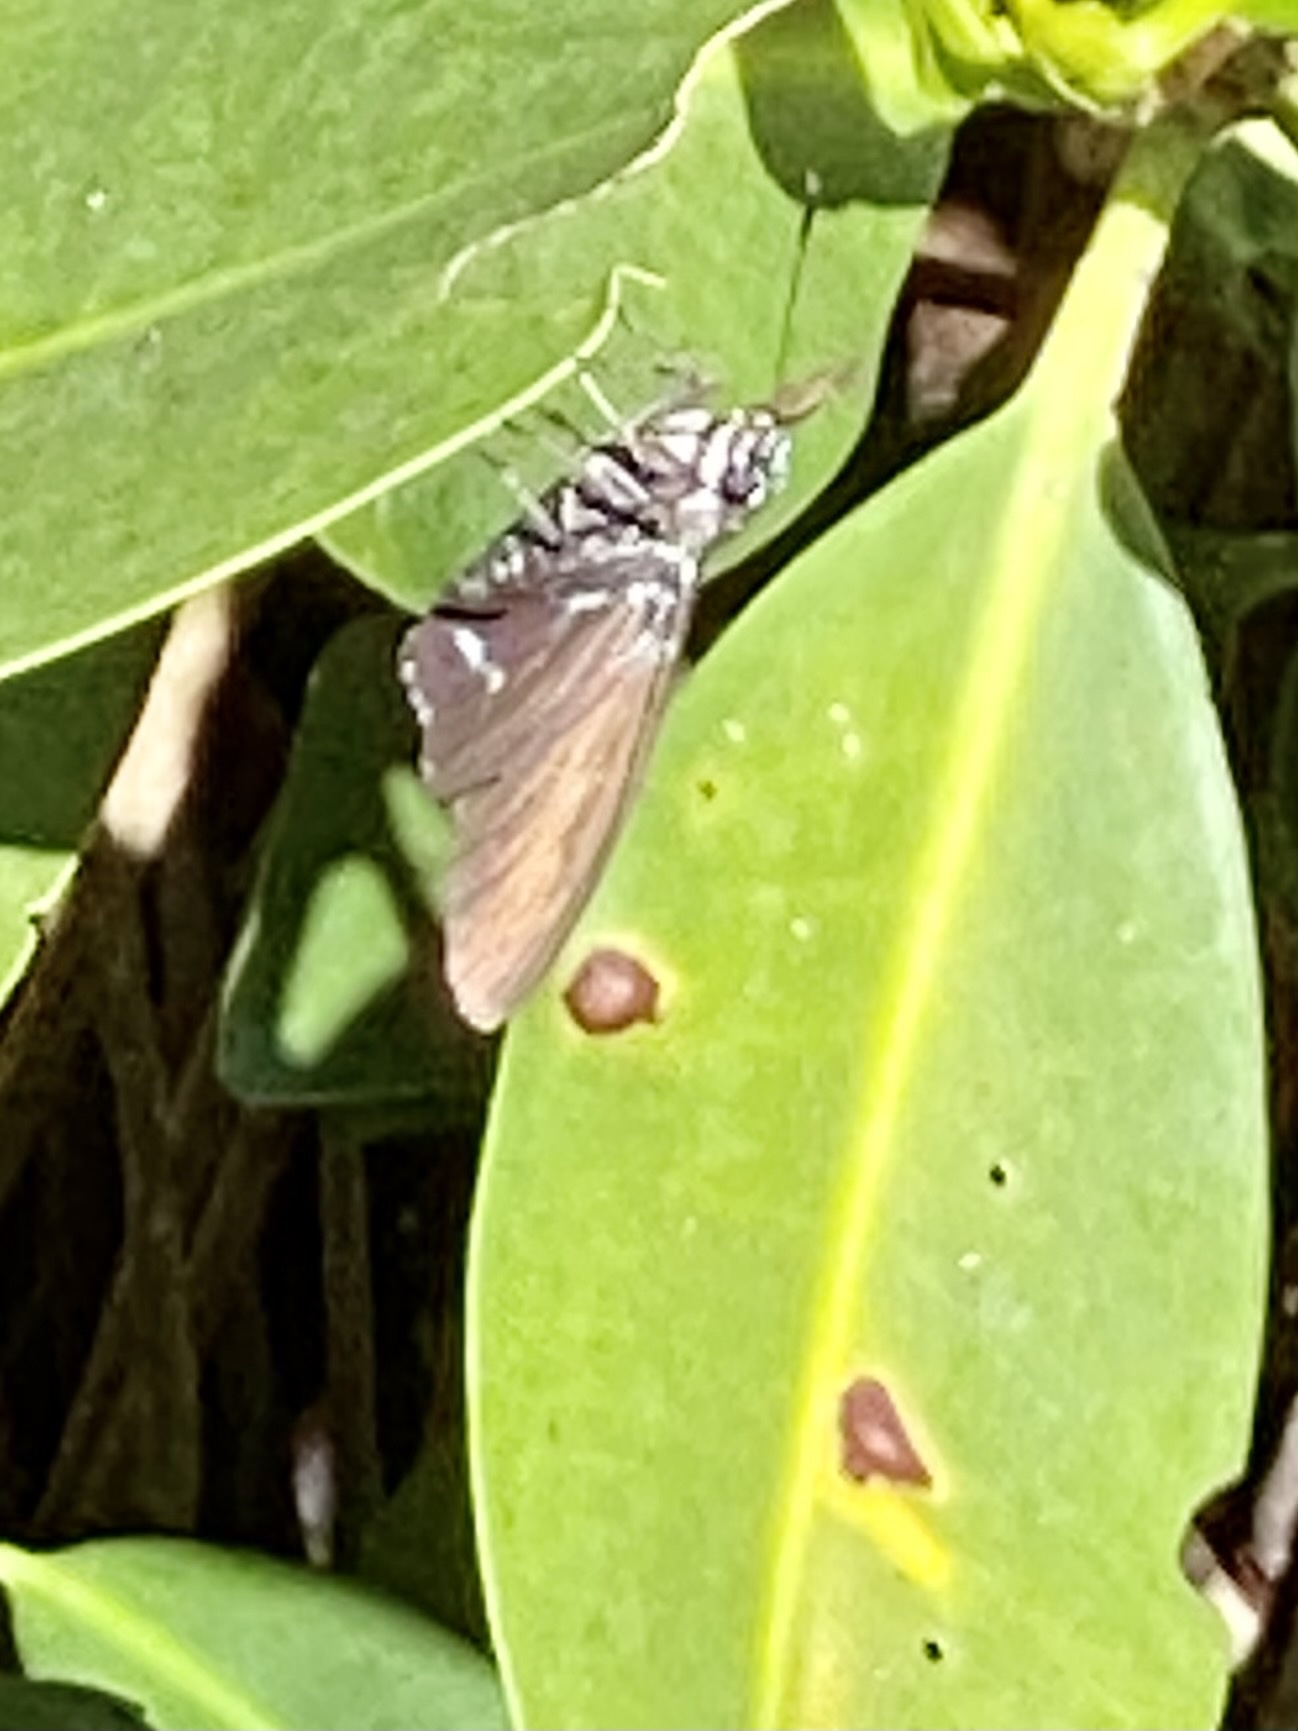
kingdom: Animalia
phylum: Arthropoda
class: Insecta
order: Lepidoptera
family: Hesperiidae
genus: Phocides
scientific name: Phocides pigmalion
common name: Mangrove skipper
